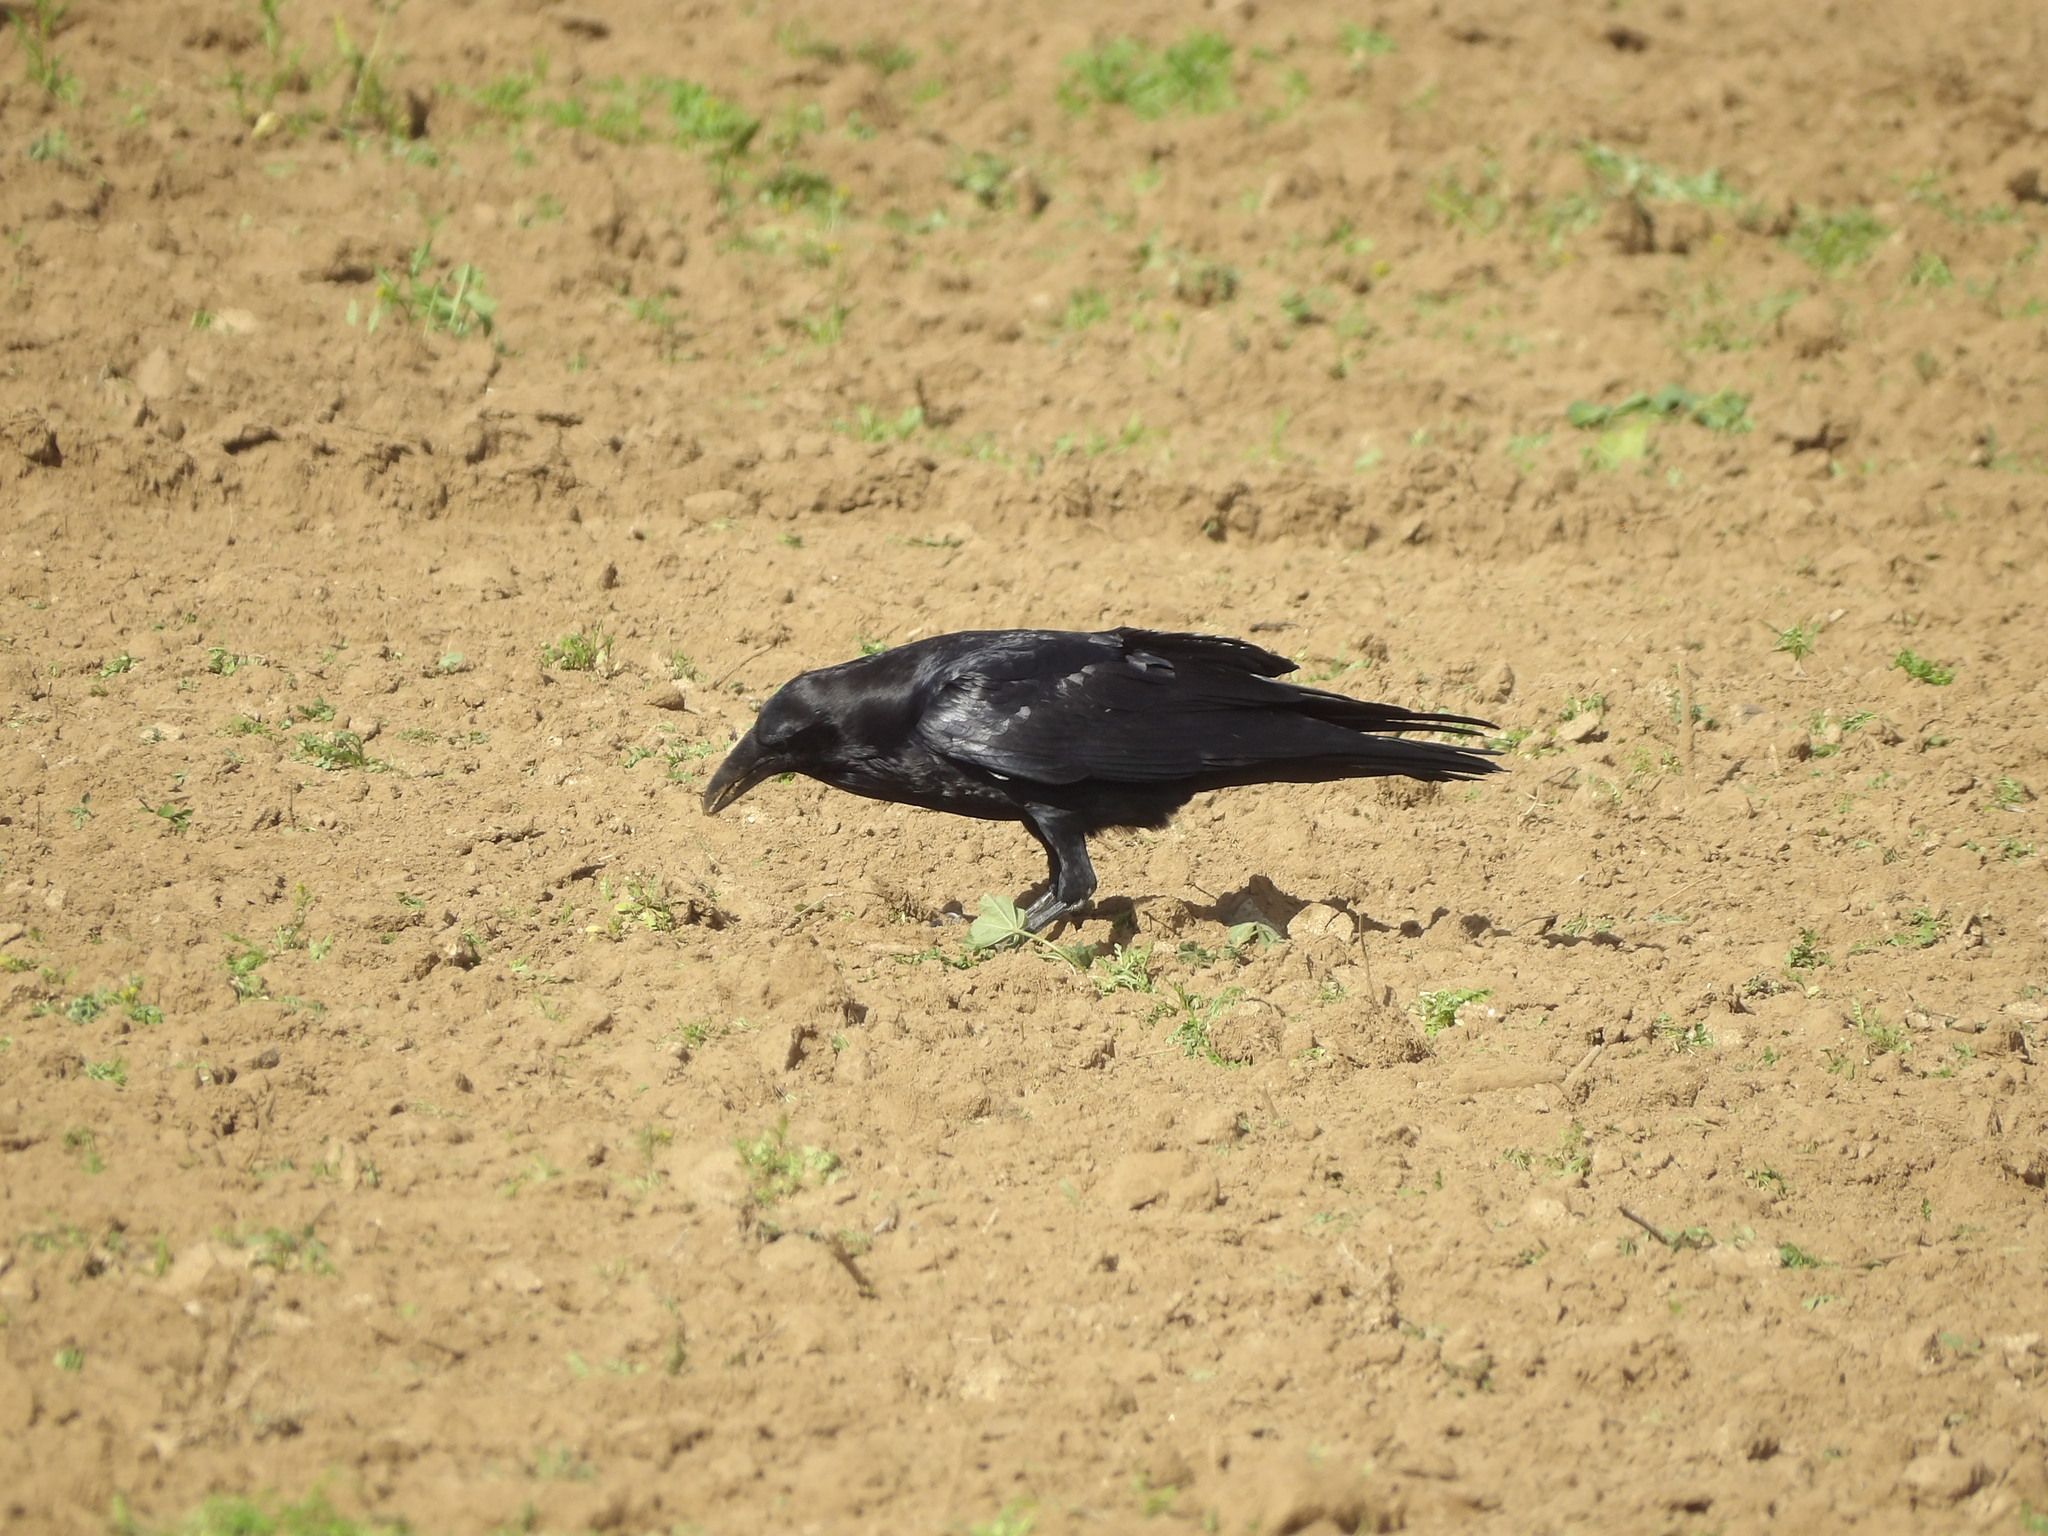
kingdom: Animalia
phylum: Chordata
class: Aves
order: Passeriformes
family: Corvidae
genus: Corvus
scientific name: Corvus corax
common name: Common raven
